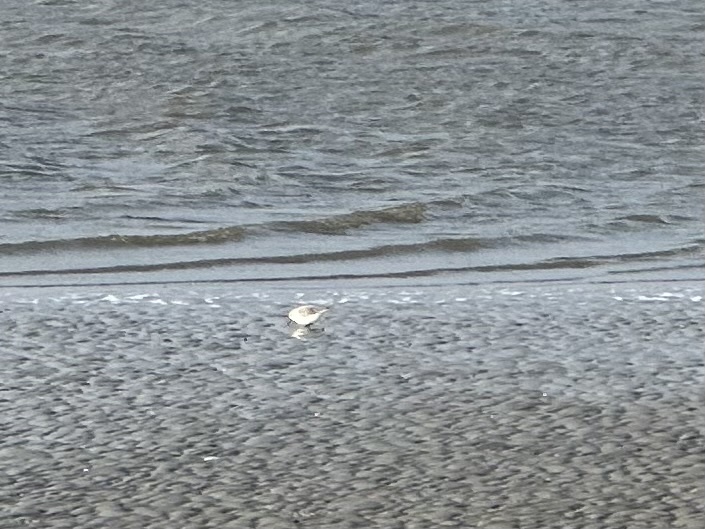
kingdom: Animalia
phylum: Chordata
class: Aves
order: Charadriiformes
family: Scolopacidae
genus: Calidris
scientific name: Calidris alba
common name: Sanderling
